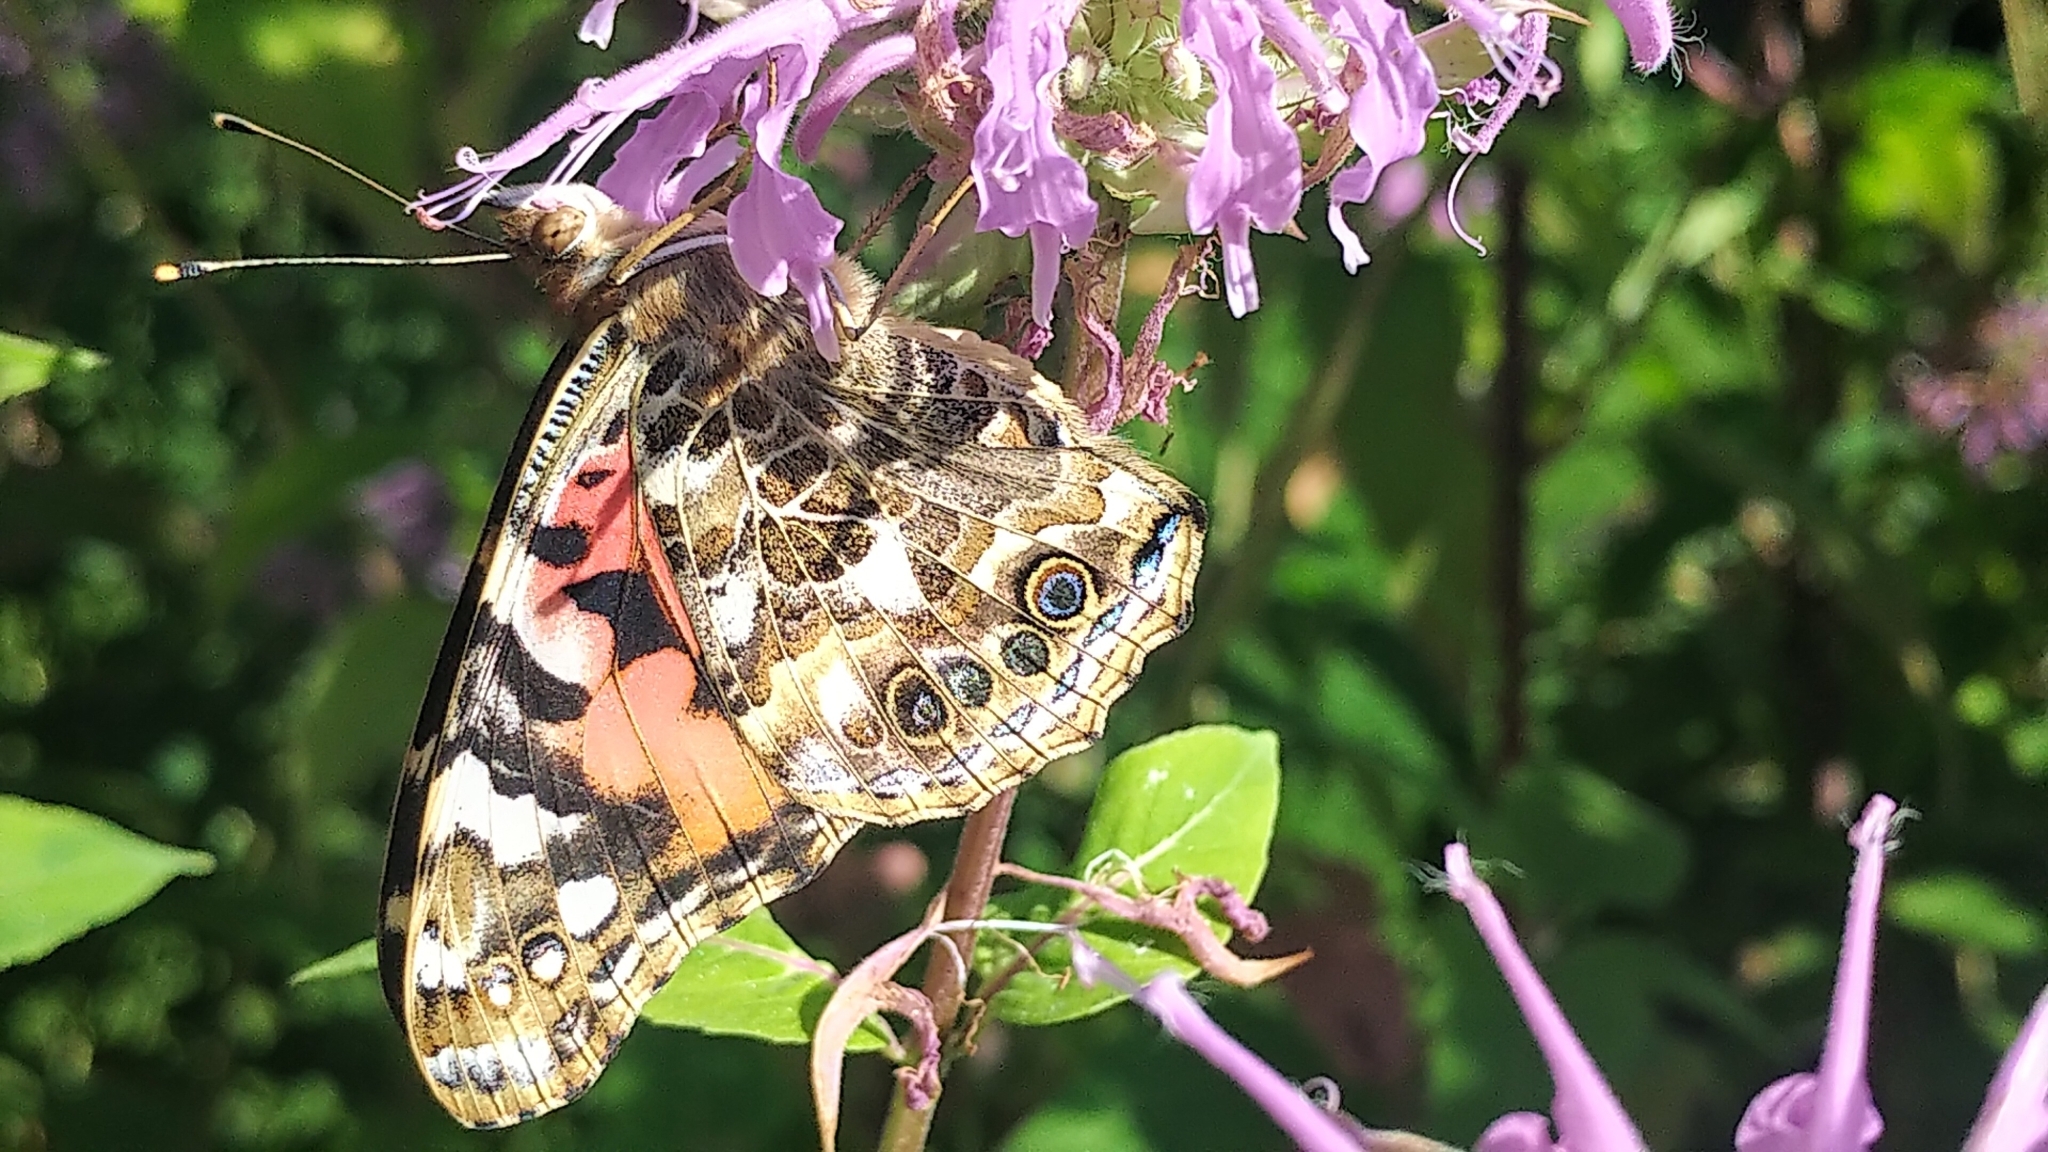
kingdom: Animalia
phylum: Arthropoda
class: Insecta
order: Lepidoptera
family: Nymphalidae
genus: Vanessa
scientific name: Vanessa cardui
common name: Painted lady
